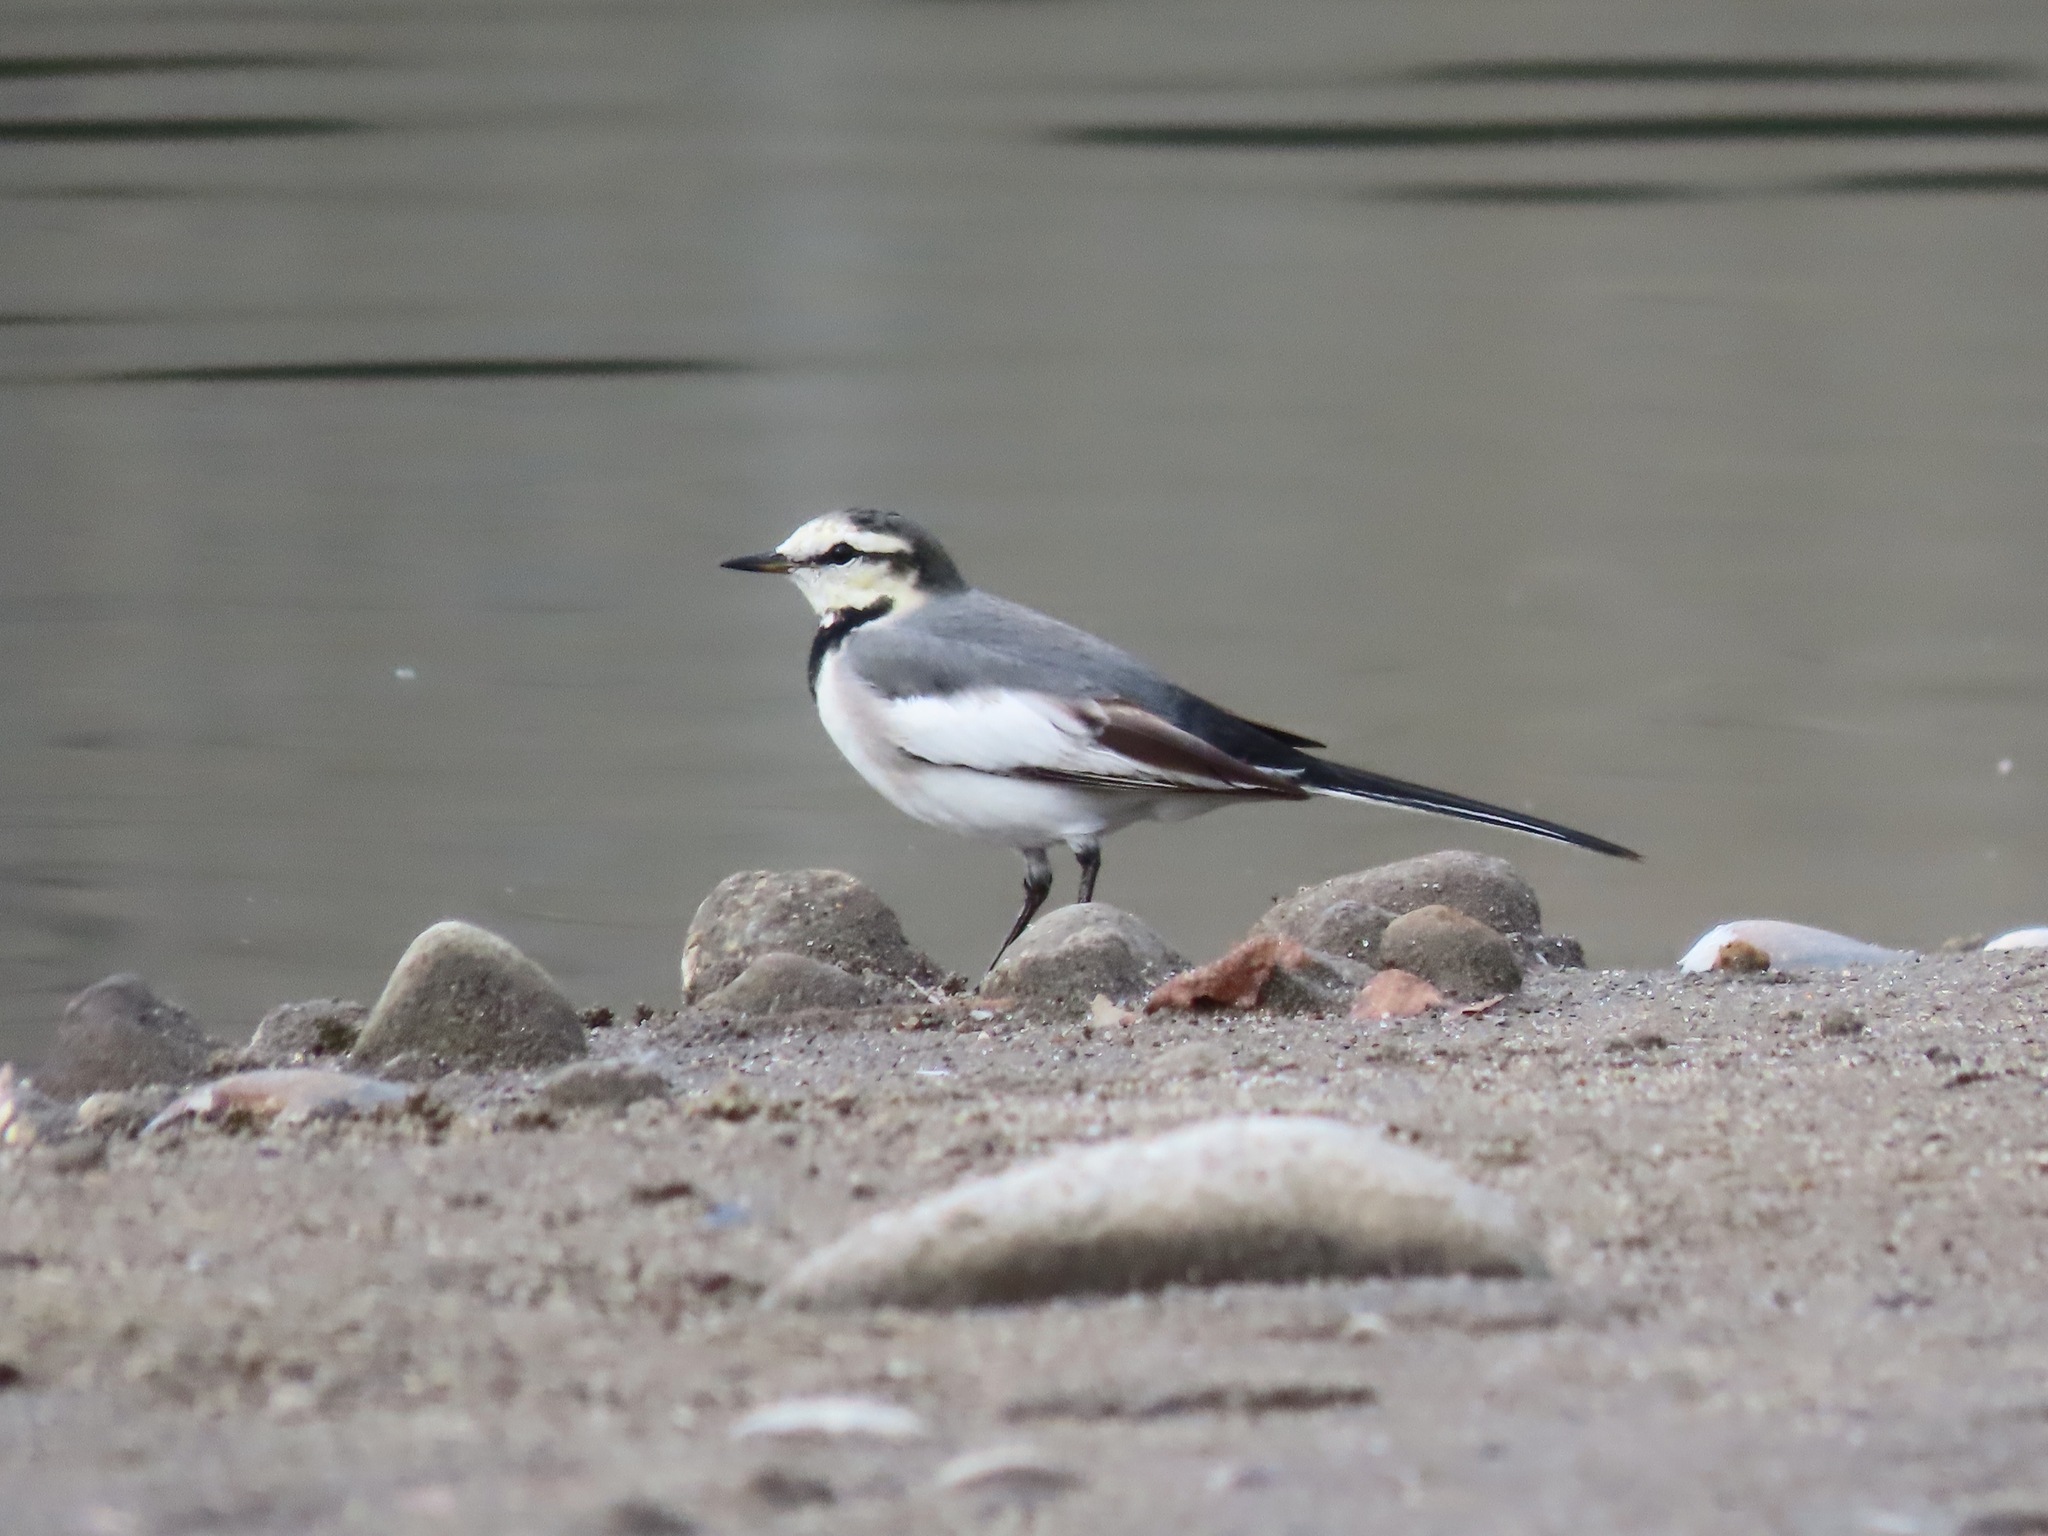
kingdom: Animalia
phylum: Chordata
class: Aves
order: Passeriformes
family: Motacillidae
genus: Motacilla
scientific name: Motacilla alba
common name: White wagtail
